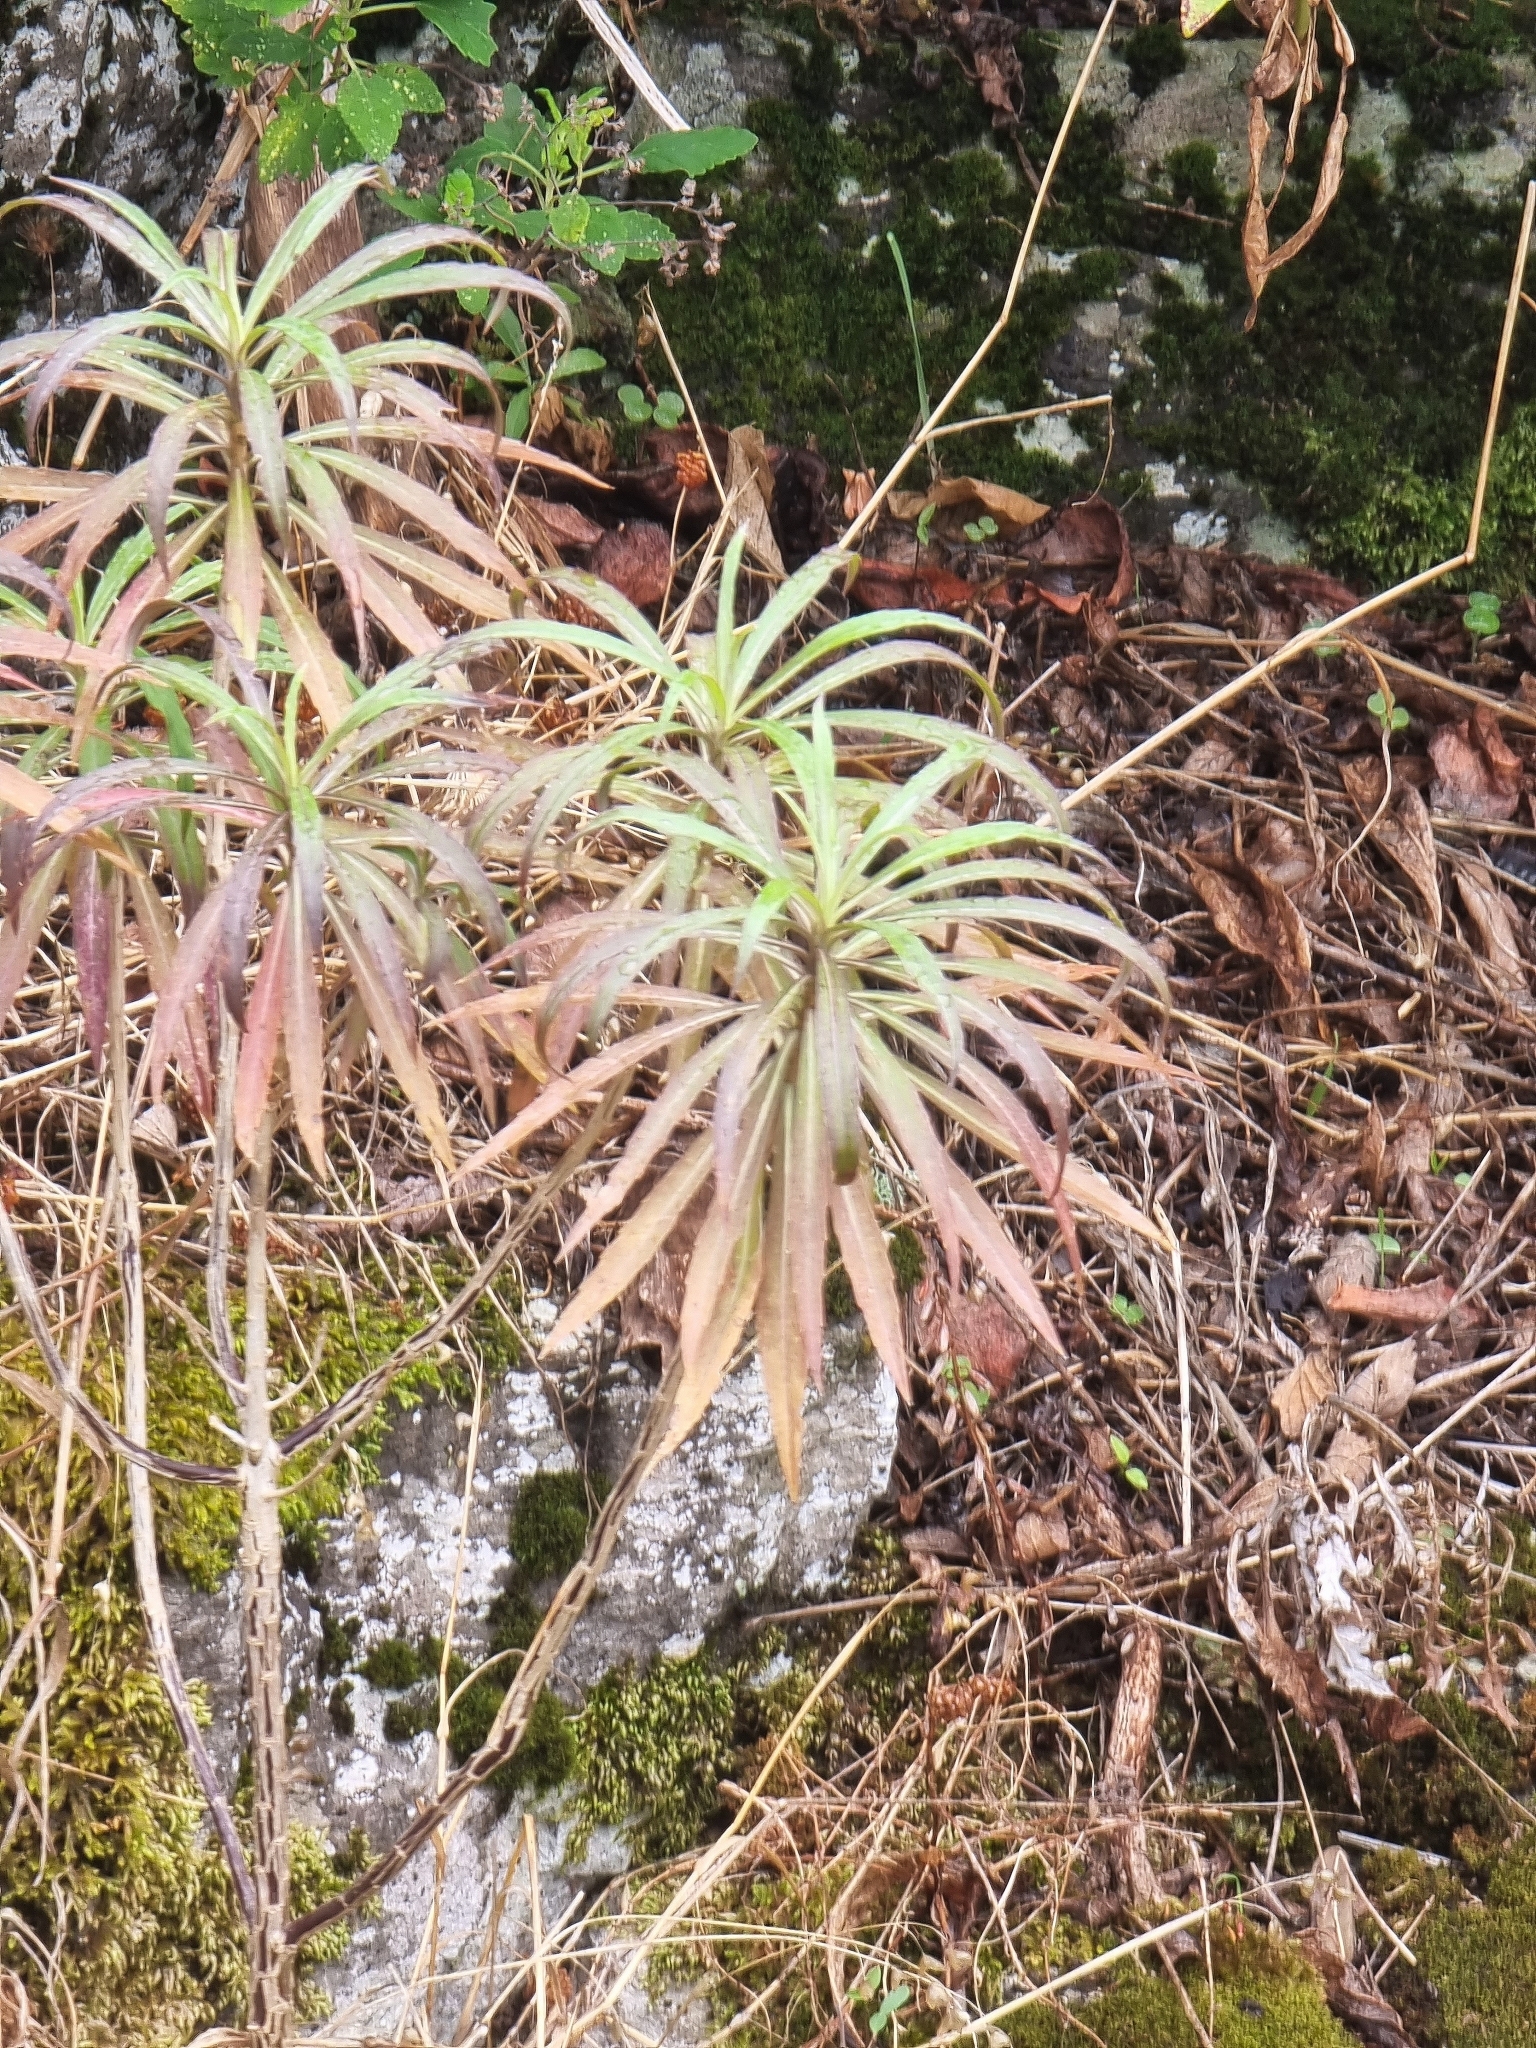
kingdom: Plantae
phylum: Tracheophyta
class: Magnoliopsida
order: Brassicales
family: Brassicaceae
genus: Erysimum
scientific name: Erysimum bicolor
